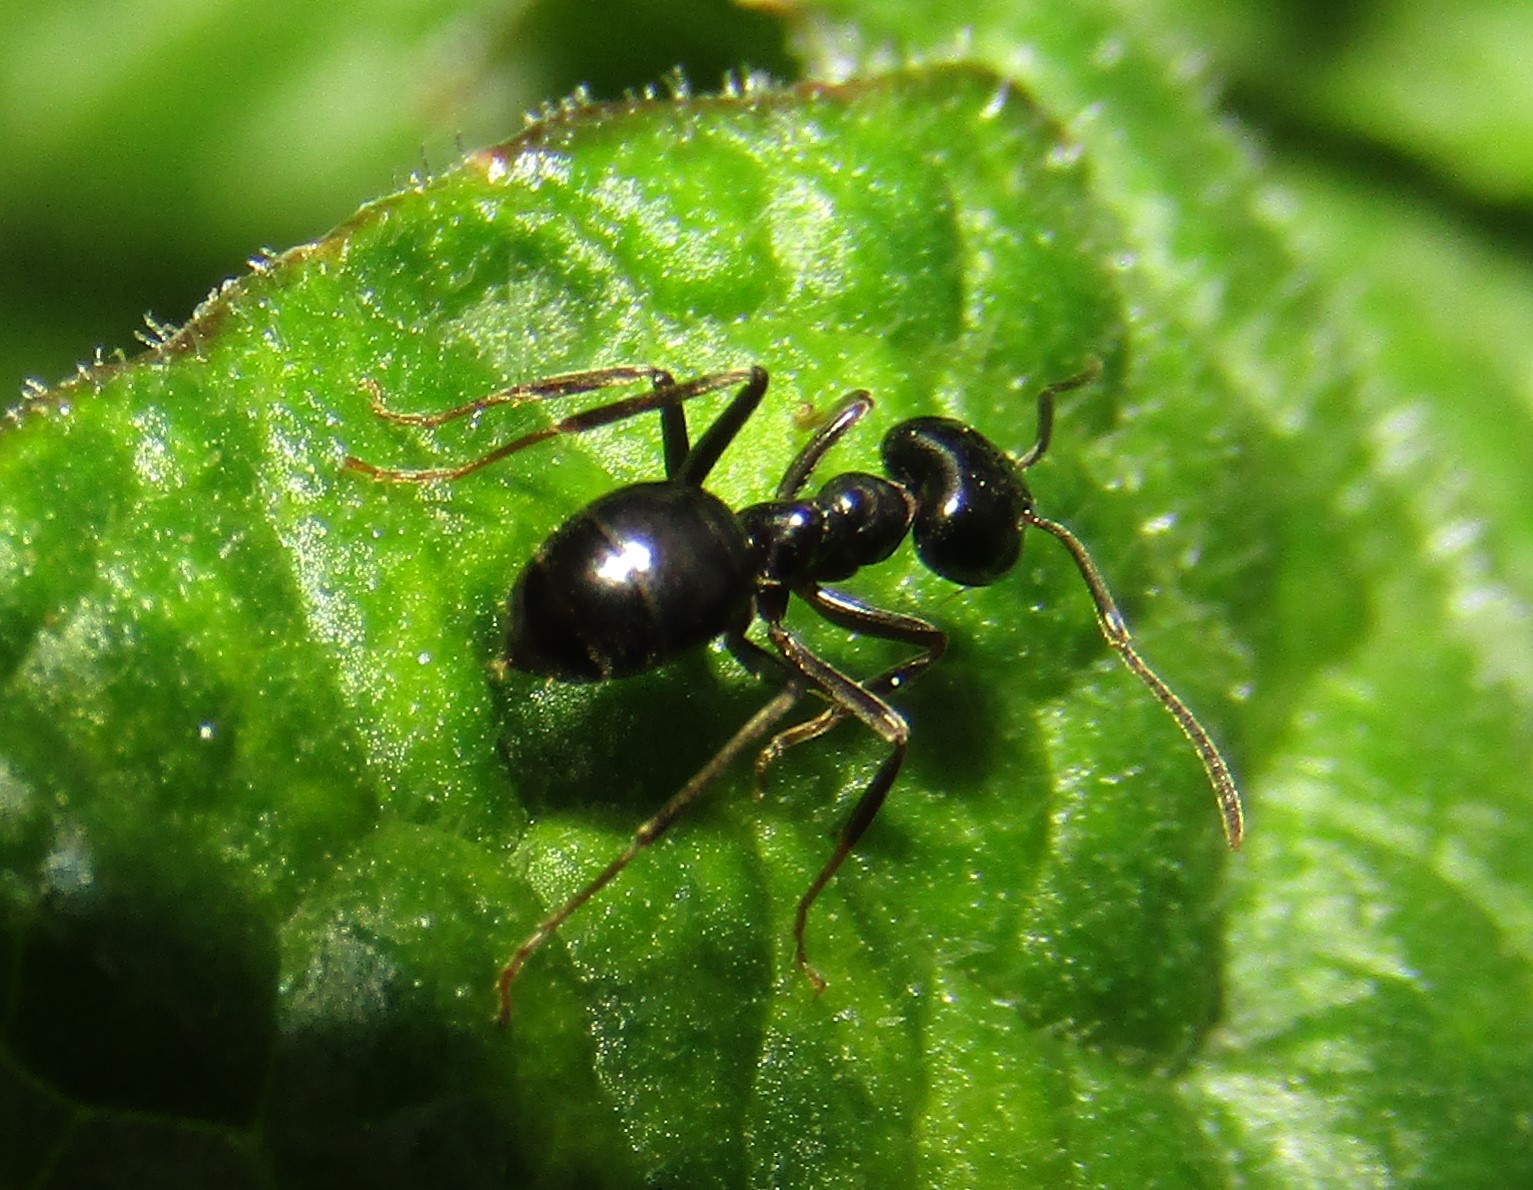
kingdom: Animalia
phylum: Arthropoda
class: Insecta
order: Hymenoptera
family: Formicidae
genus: Lasius
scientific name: Lasius fuliginosus
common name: Jet ant
